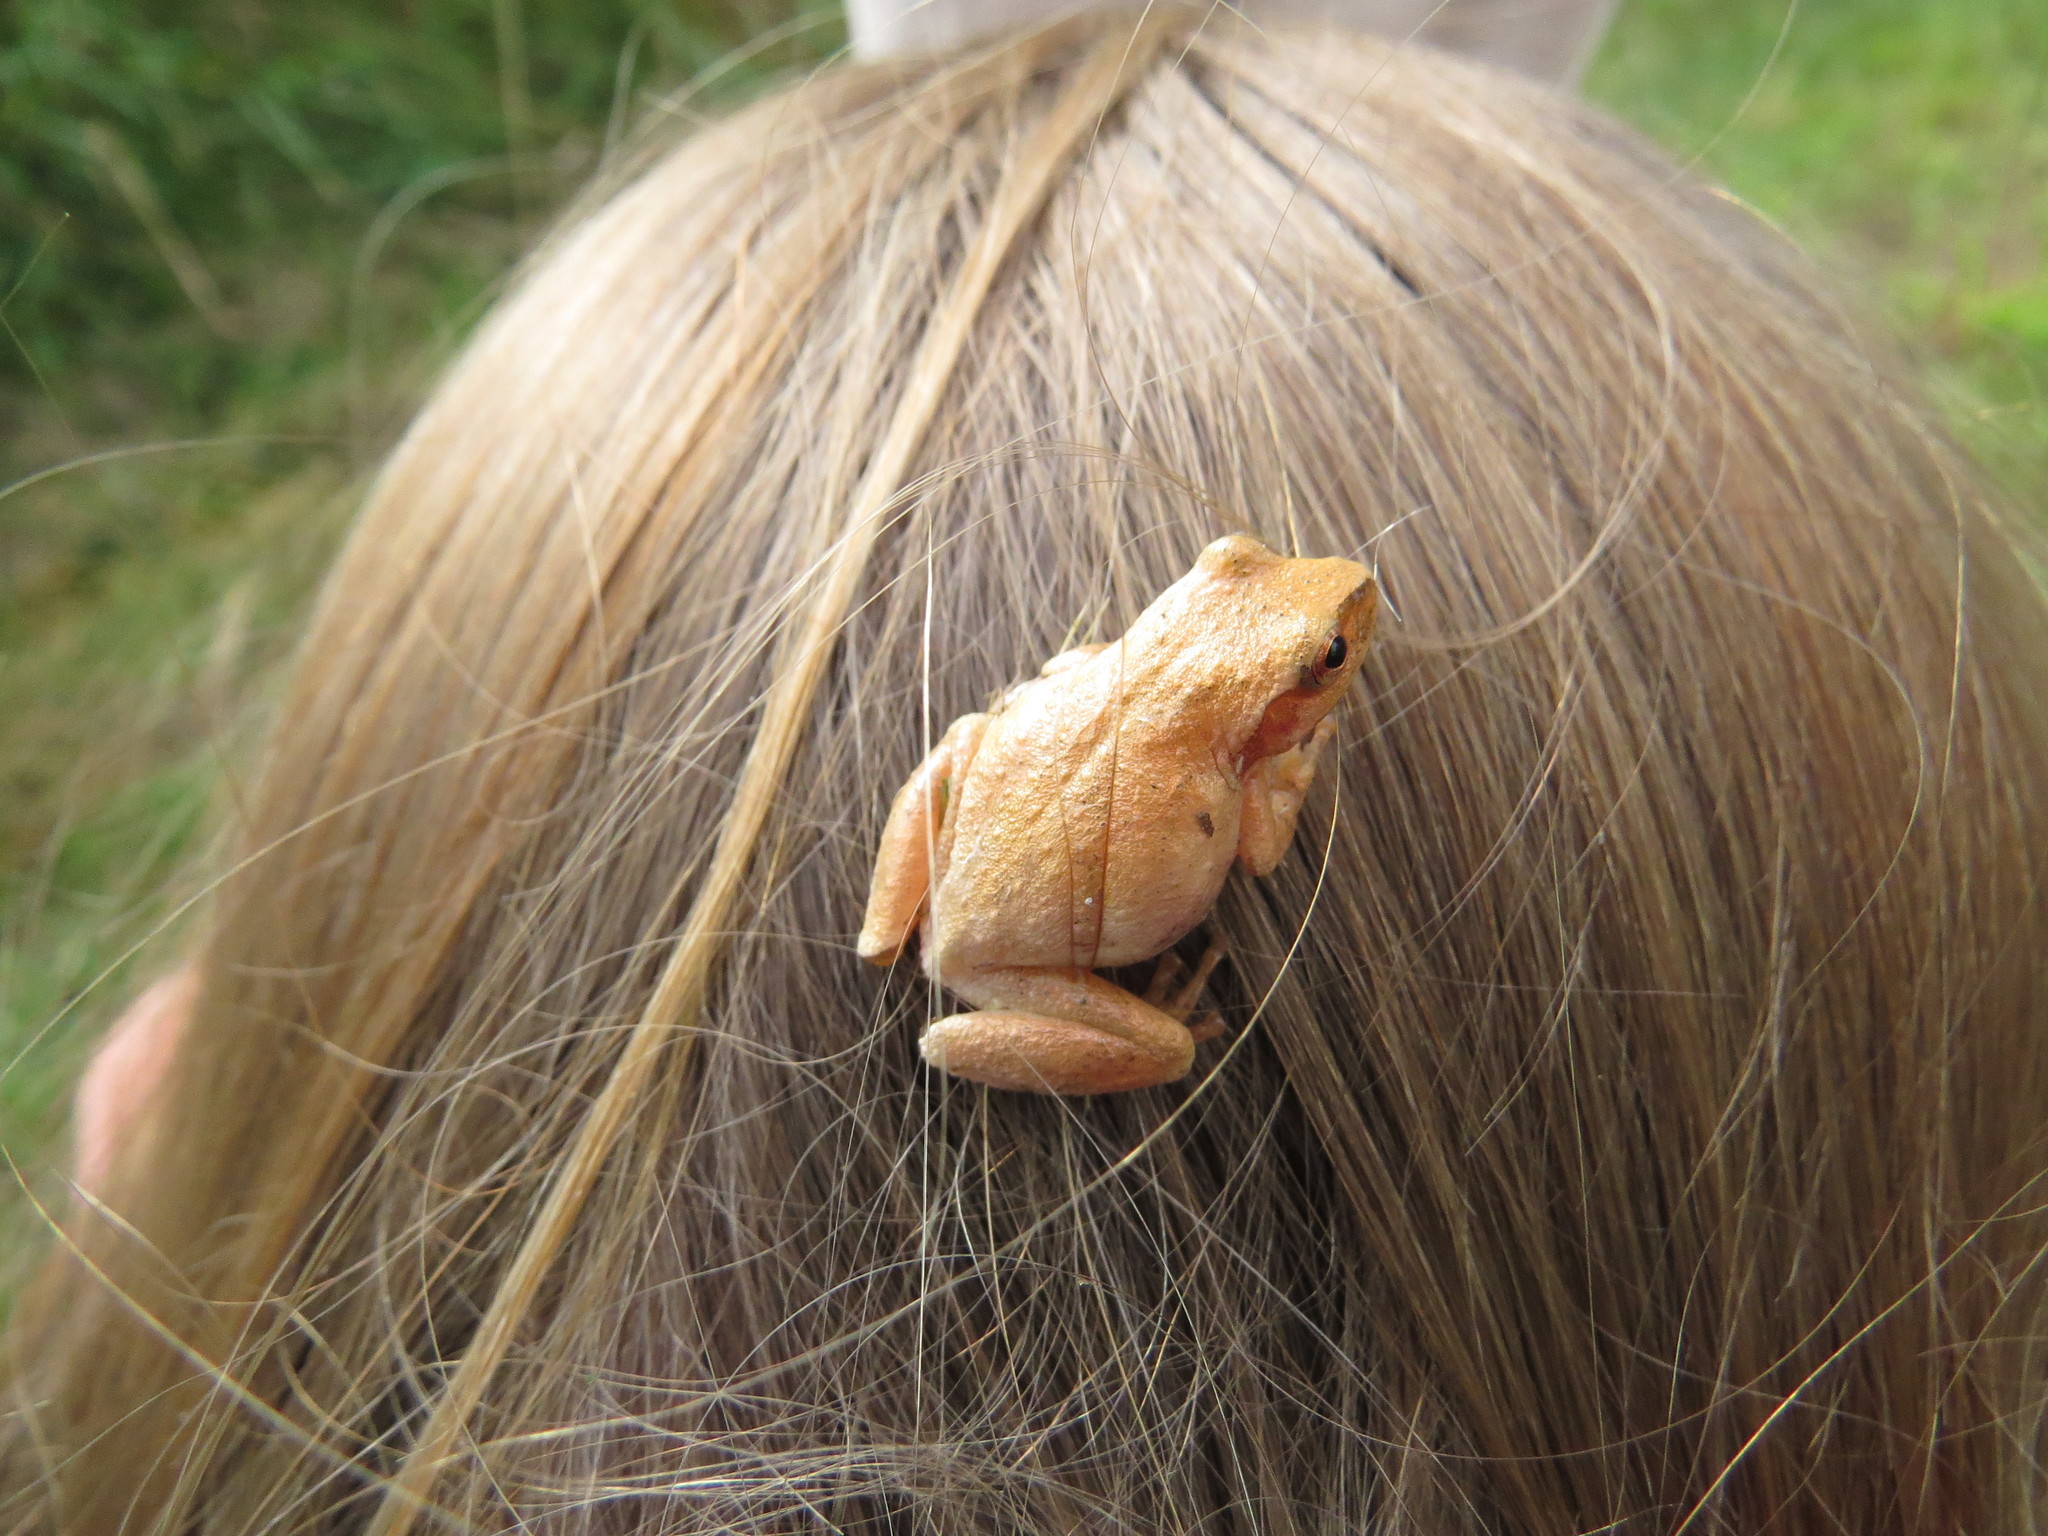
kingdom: Animalia
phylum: Chordata
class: Amphibia
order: Anura
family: Hylidae
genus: Pseudacris
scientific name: Pseudacris crucifer
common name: Spring peeper
